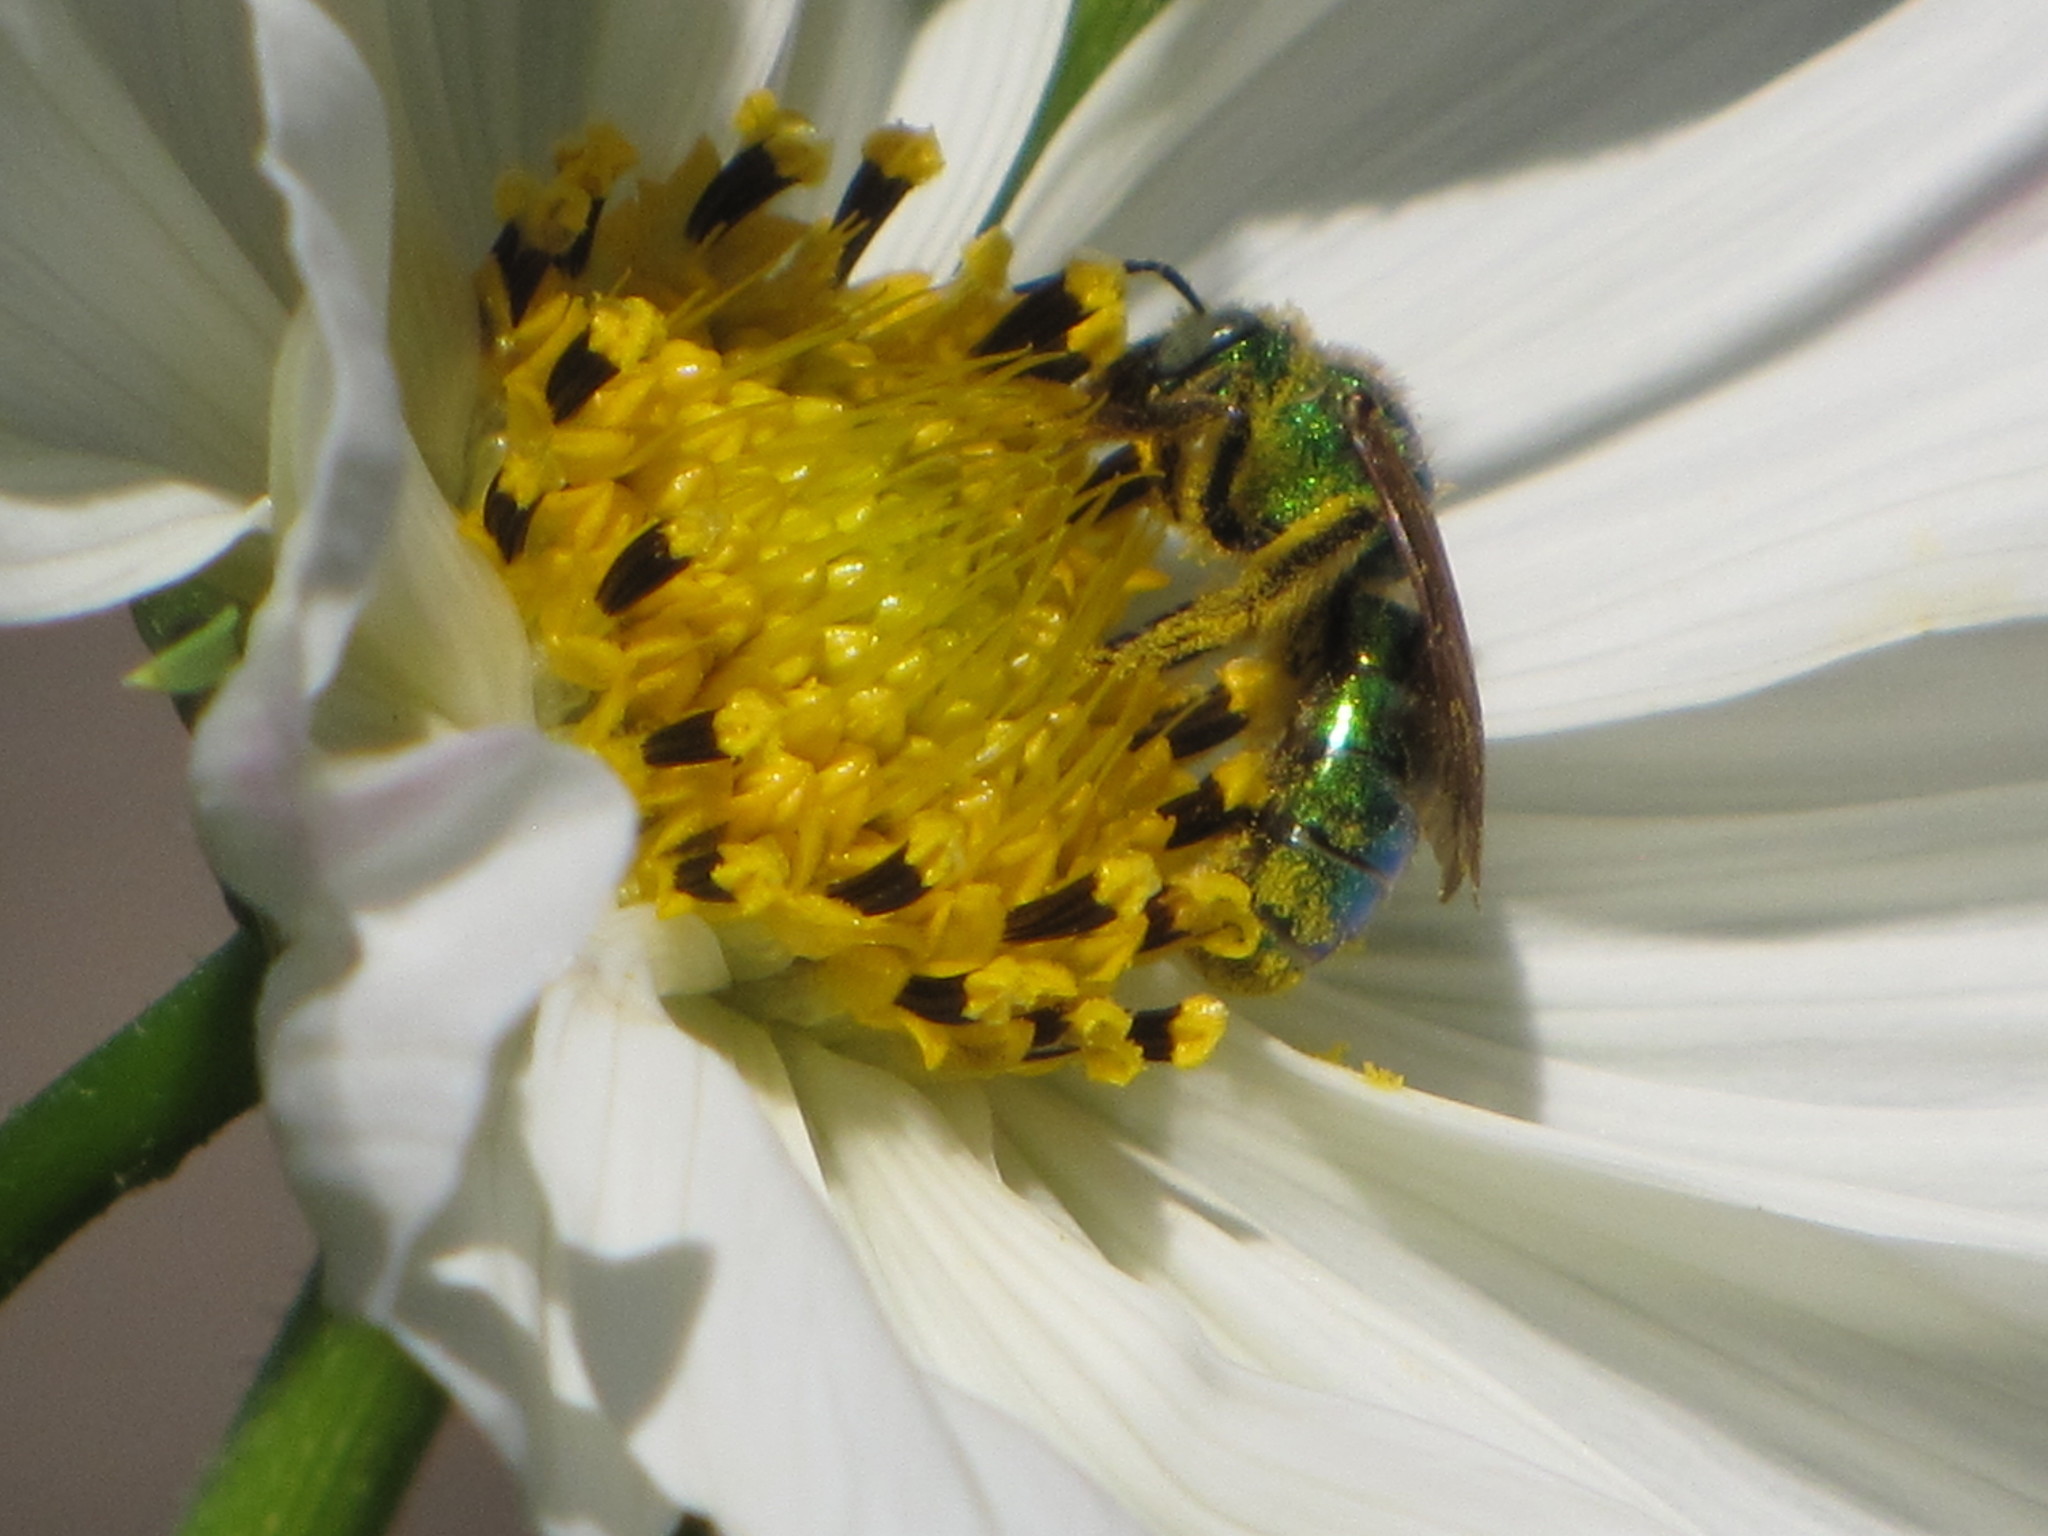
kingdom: Animalia
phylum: Arthropoda
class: Insecta
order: Hymenoptera
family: Halictidae
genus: Agapostemon
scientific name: Agapostemon texanus
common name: Texas striped sweat bee
